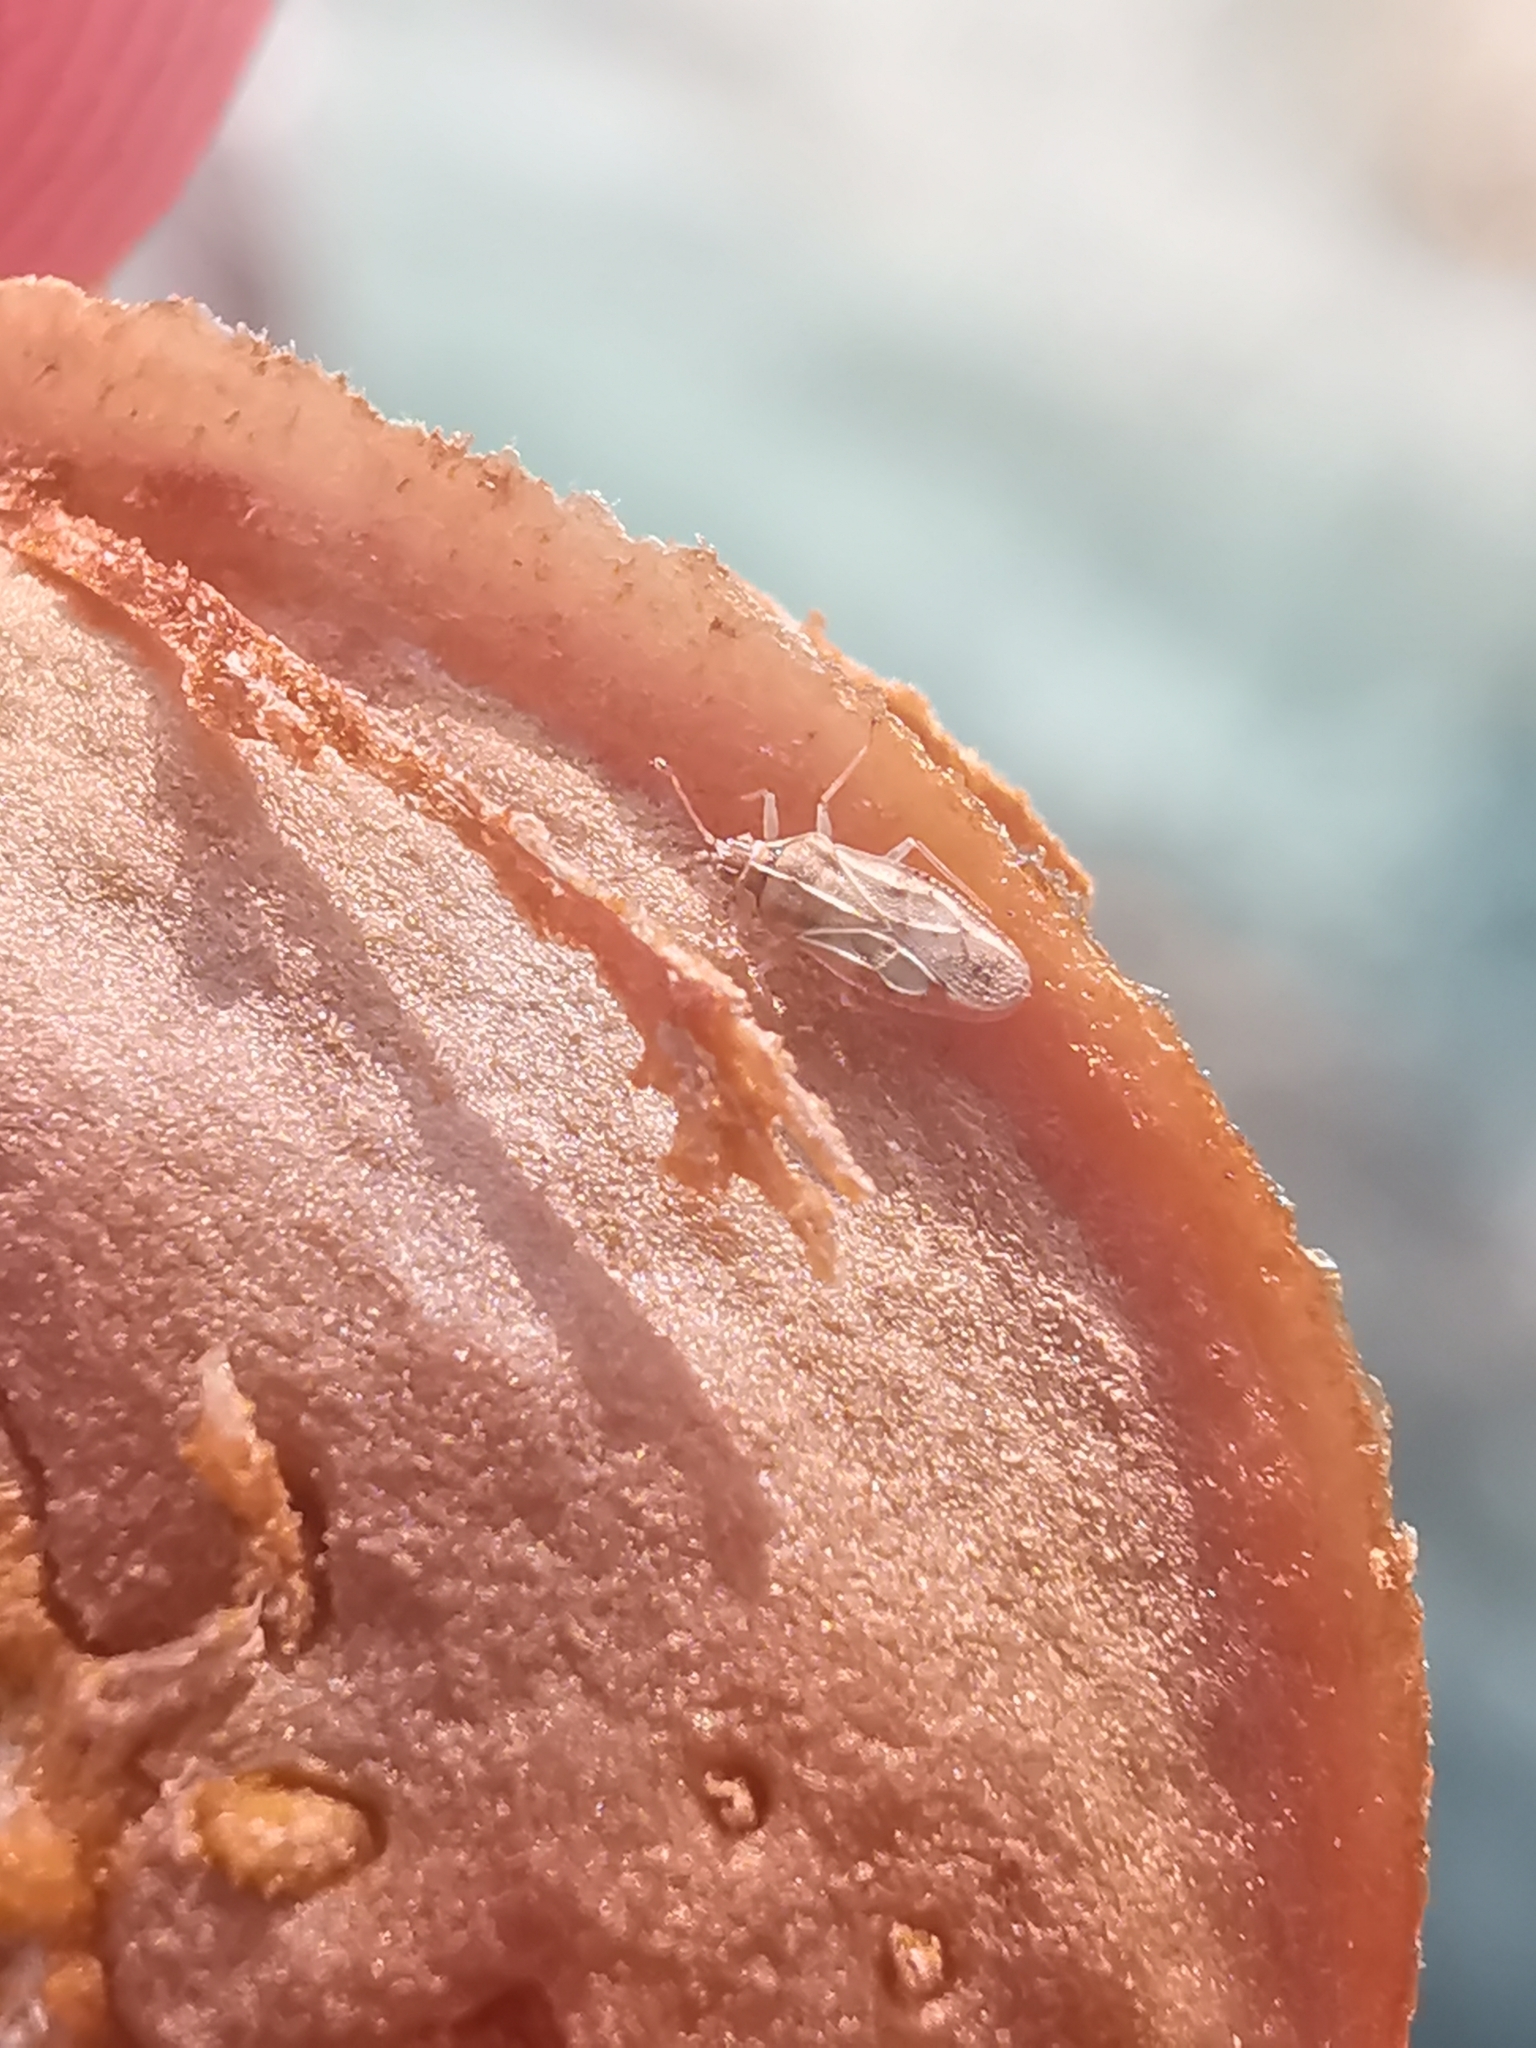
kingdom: Animalia
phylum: Arthropoda
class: Insecta
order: Hemiptera
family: Tingidae
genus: Monosteira
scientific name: Monosteira unicostata
